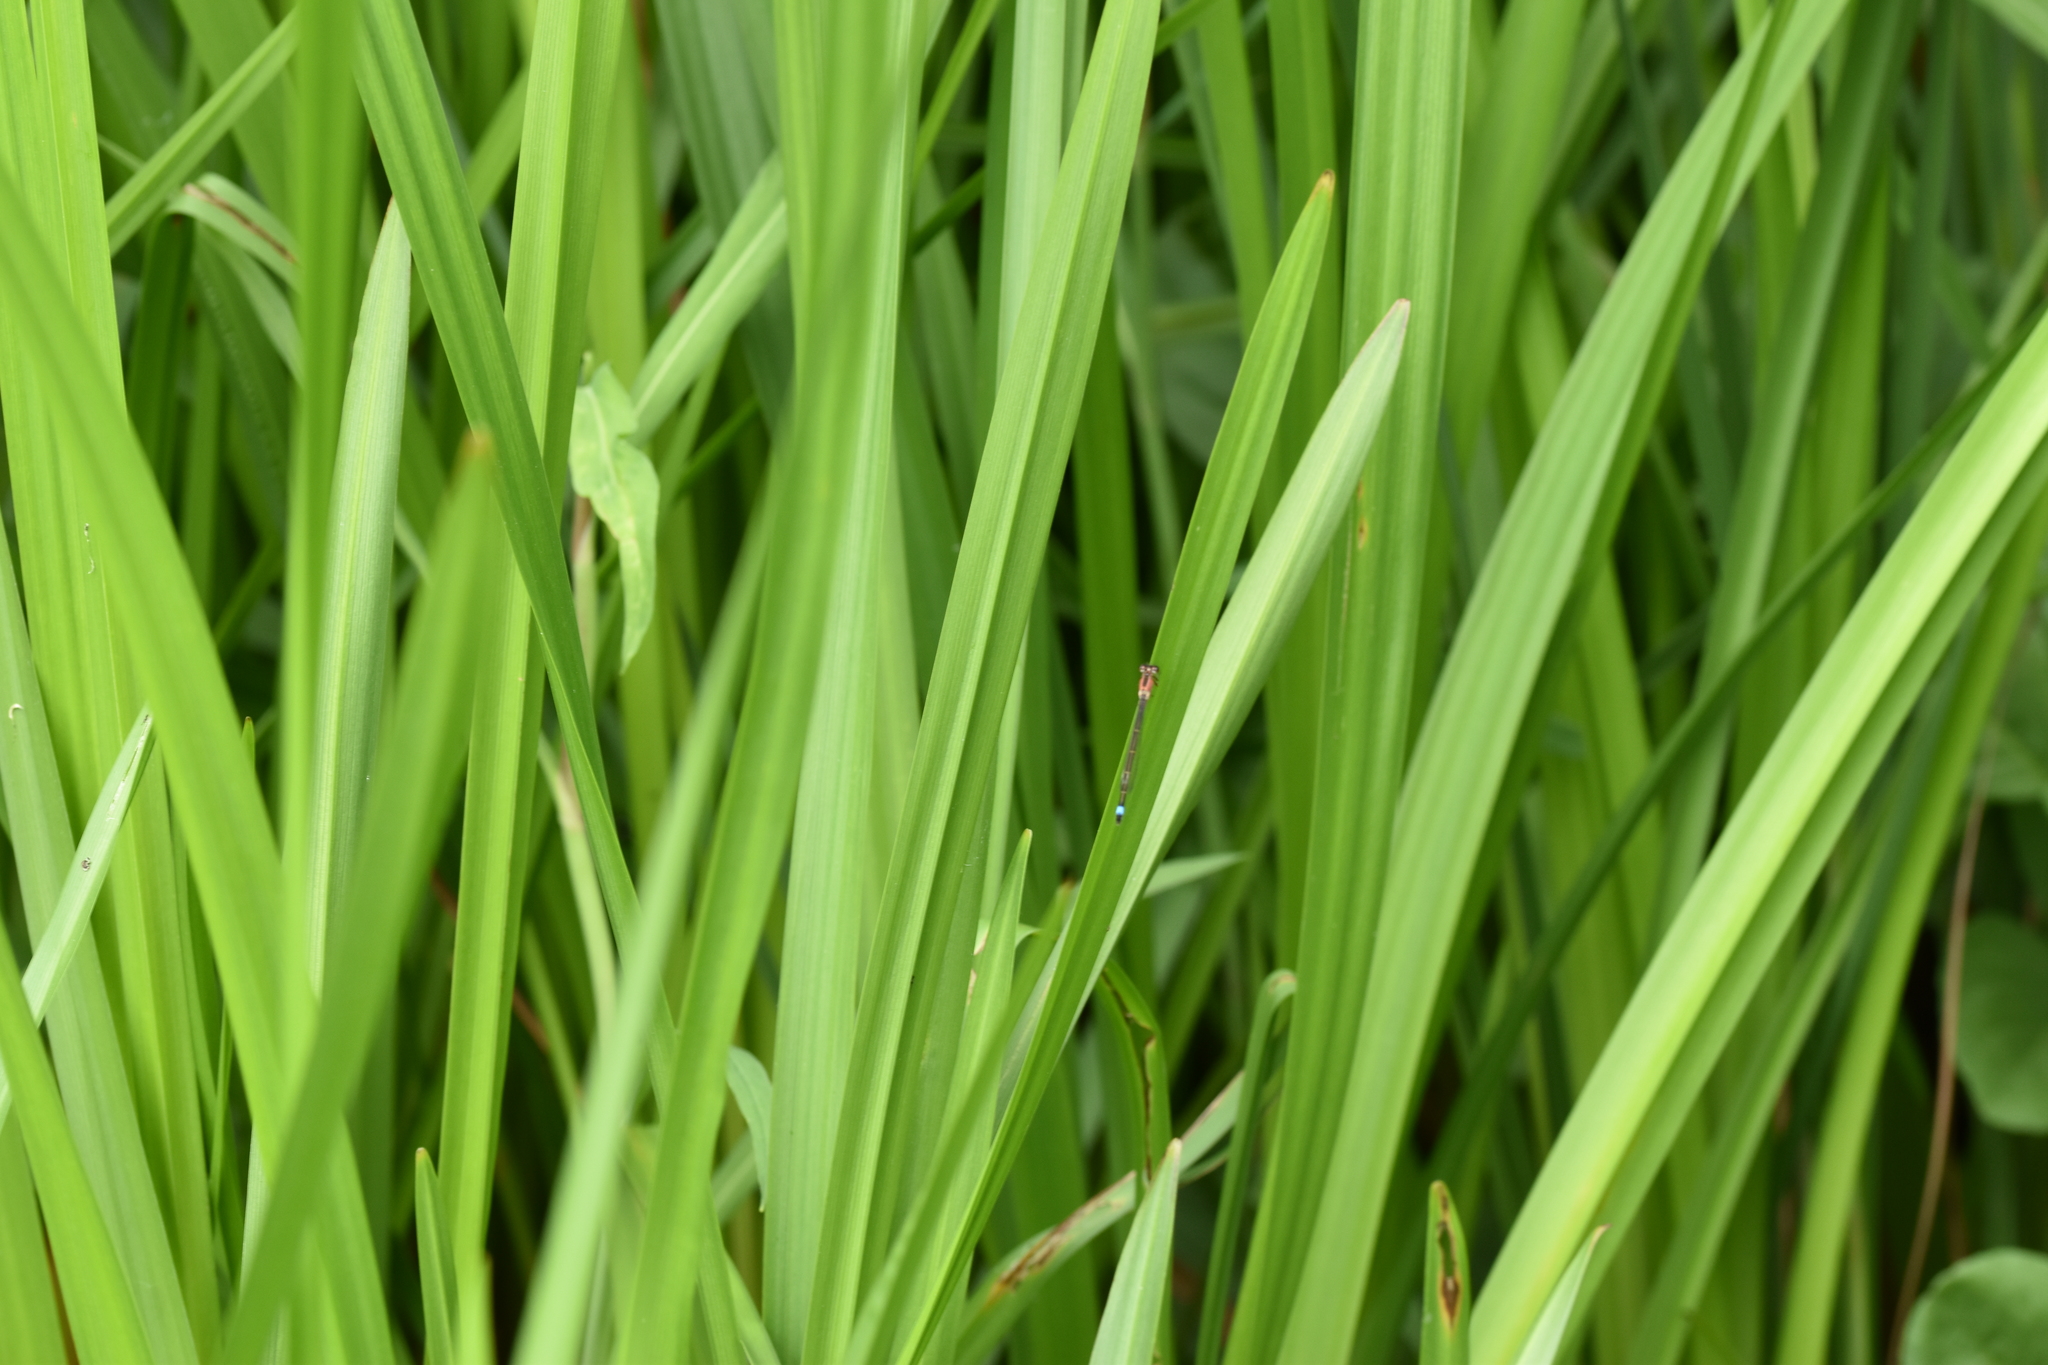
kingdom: Animalia
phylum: Arthropoda
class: Insecta
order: Odonata
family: Coenagrionidae
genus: Ischnura
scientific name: Ischnura elegans
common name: Blue-tailed damselfly
